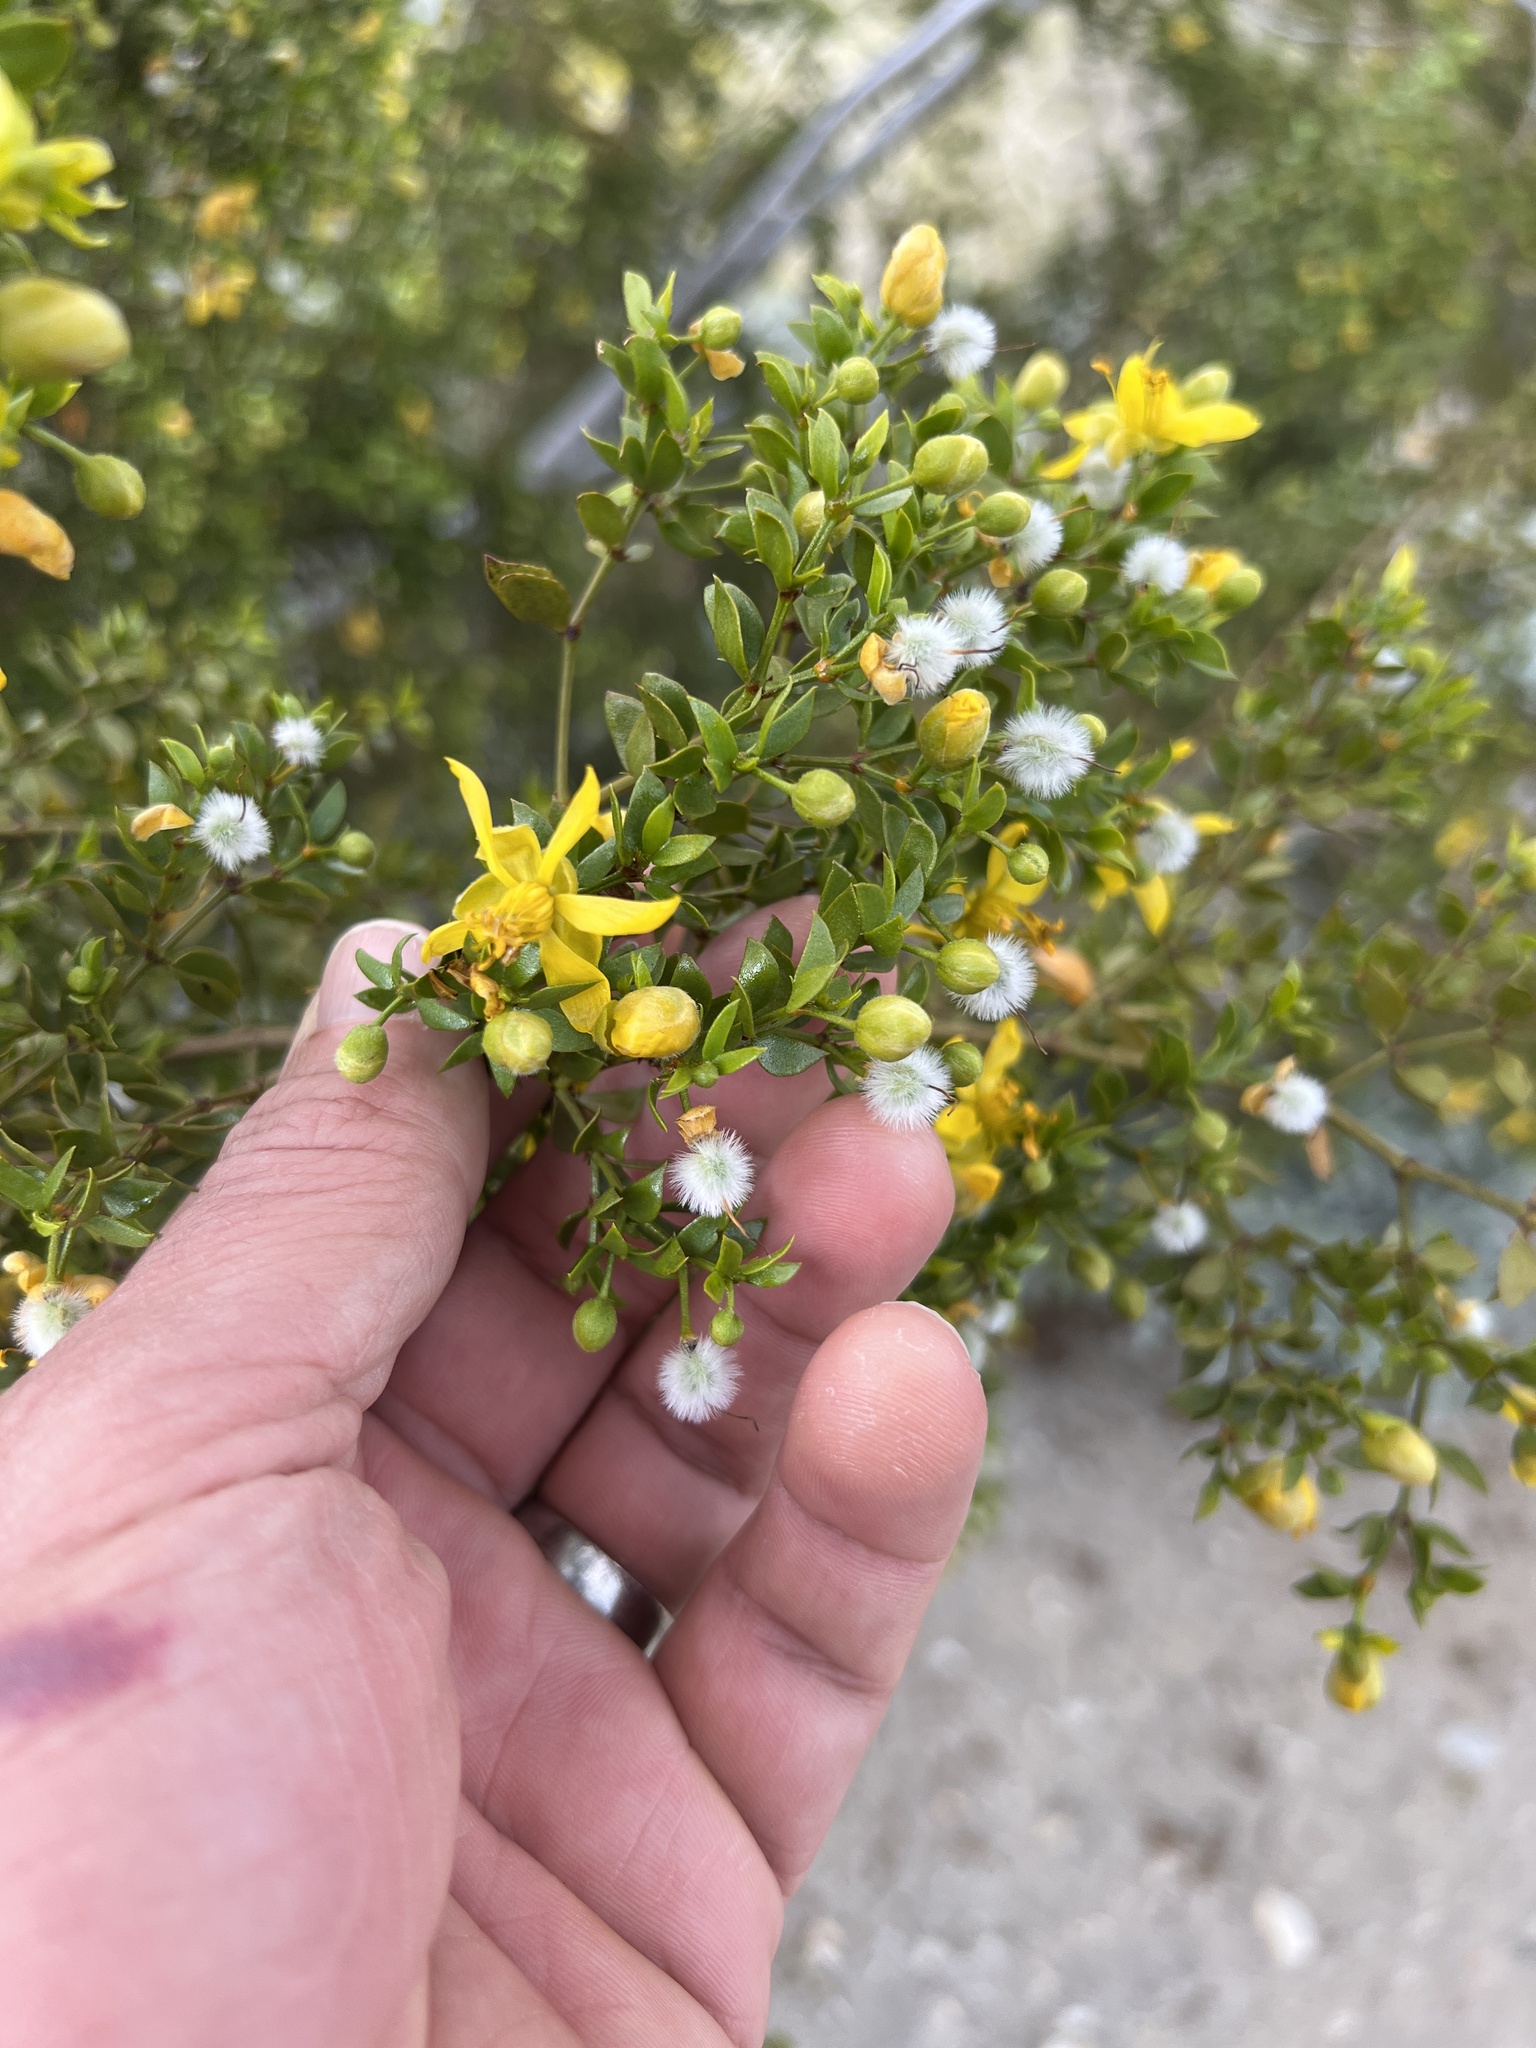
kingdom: Plantae
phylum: Tracheophyta
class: Magnoliopsida
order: Zygophyllales
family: Zygophyllaceae
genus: Larrea
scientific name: Larrea tridentata
